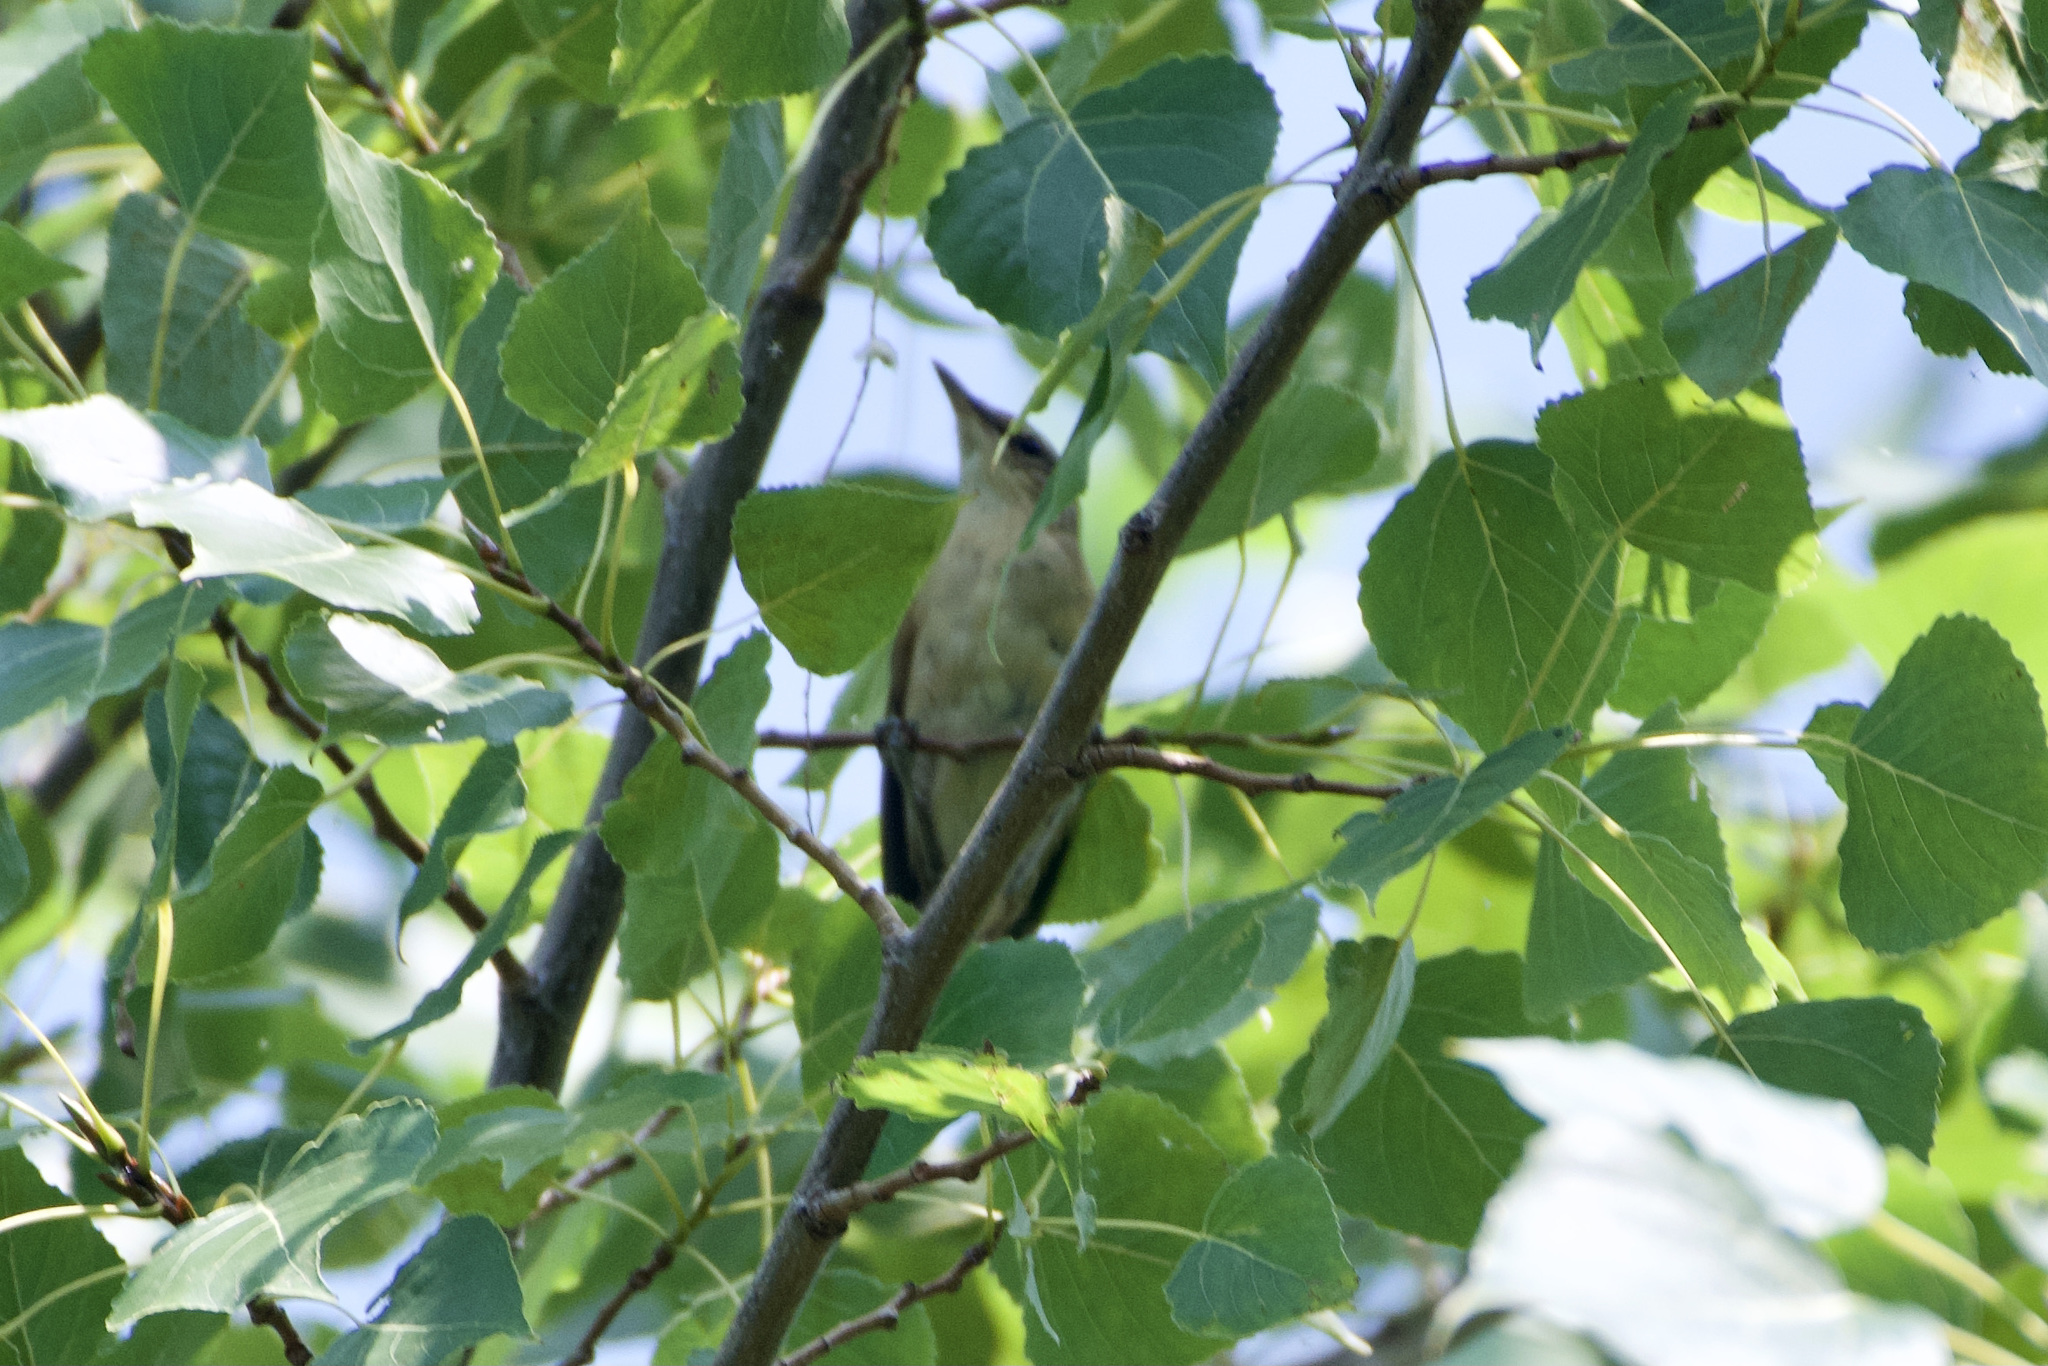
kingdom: Animalia
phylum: Chordata
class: Aves
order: Passeriformes
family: Acrocephalidae
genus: Acrocephalus
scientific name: Acrocephalus arundinaceus
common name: Great reed warbler
